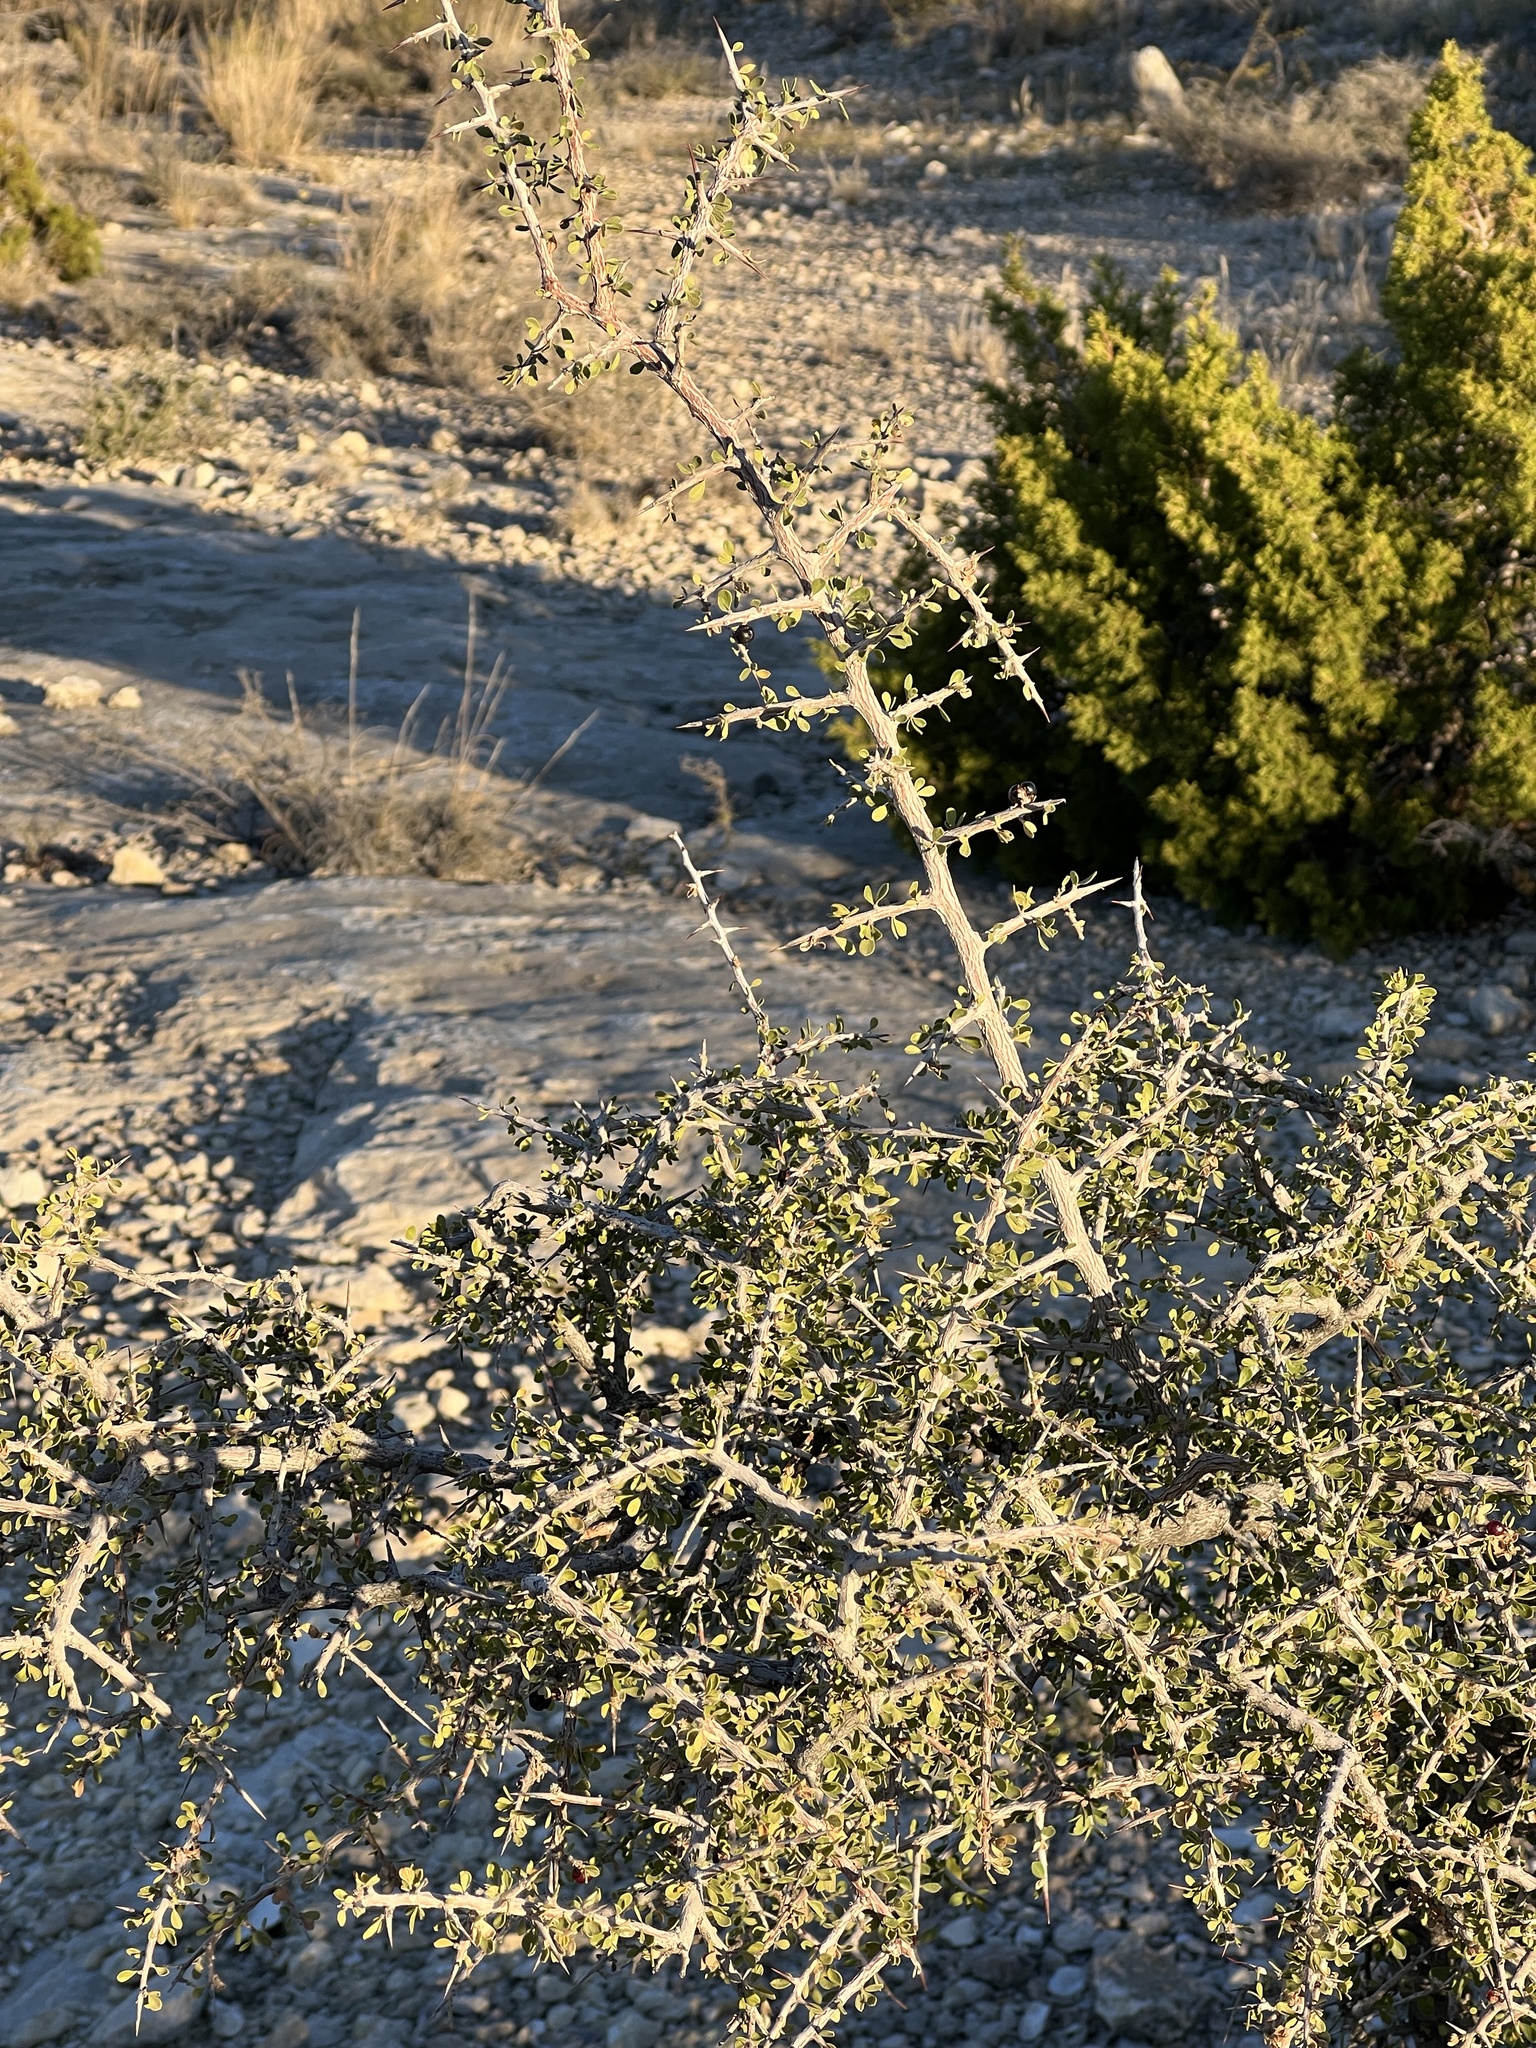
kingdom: Plantae
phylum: Tracheophyta
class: Magnoliopsida
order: Rosales
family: Rhamnaceae
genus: Condalia
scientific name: Condalia viridis
